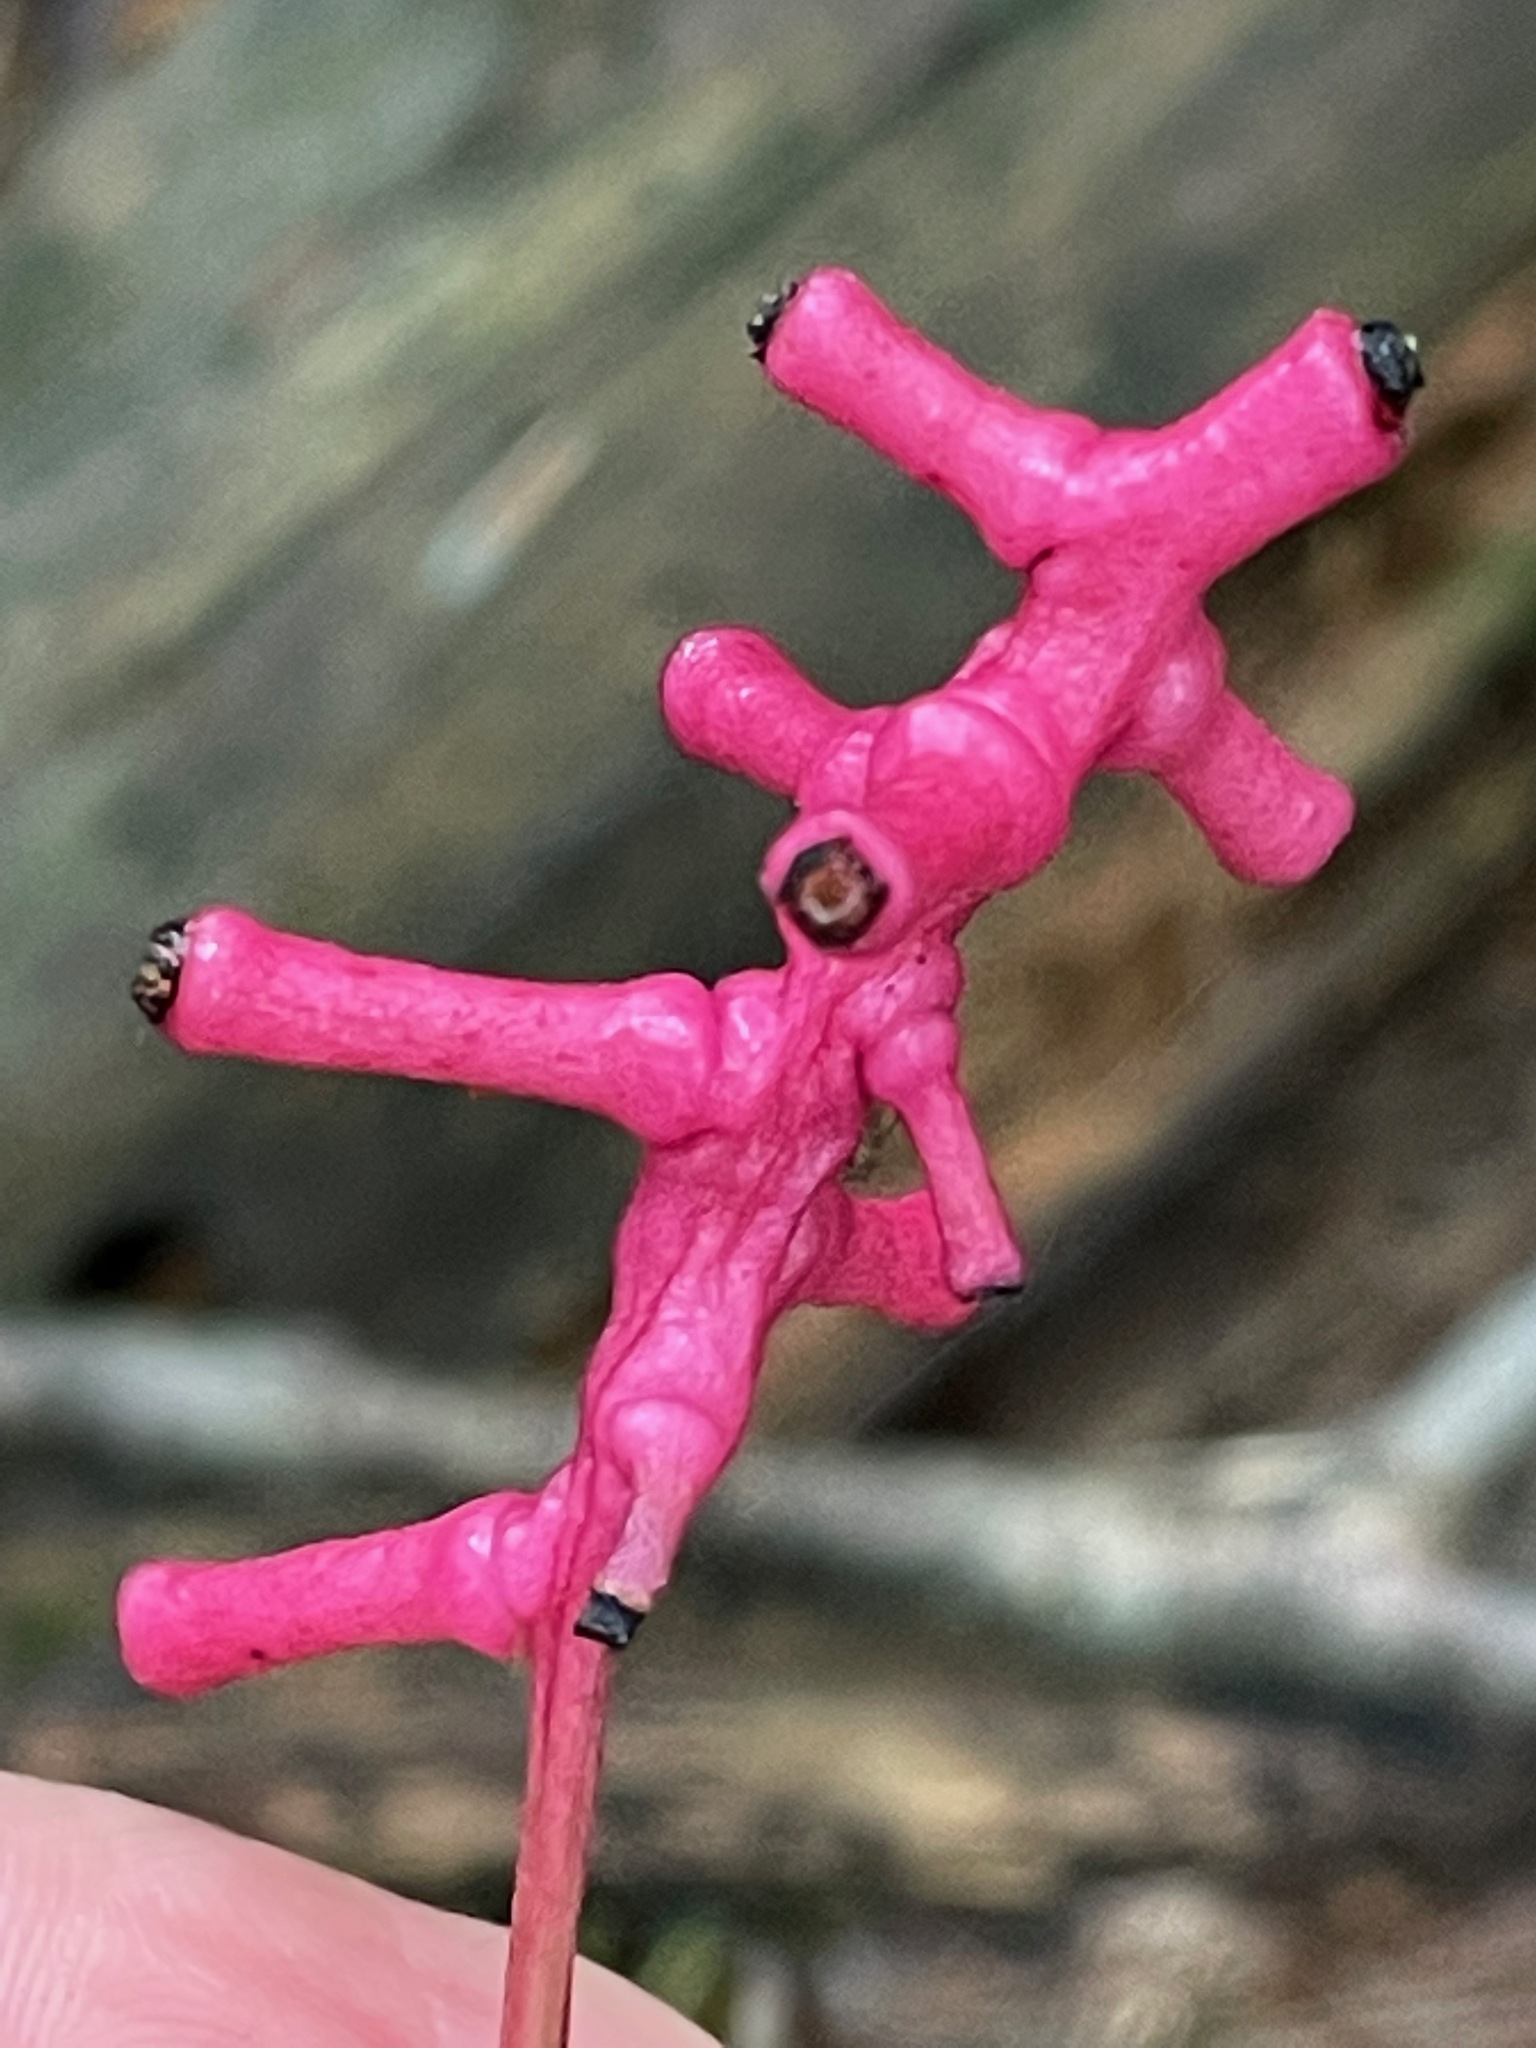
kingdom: Plantae
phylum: Tracheophyta
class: Magnoliopsida
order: Ranunculales
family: Ranunculaceae
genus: Actaea
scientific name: Actaea pachypoda
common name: Doll's-eyes
